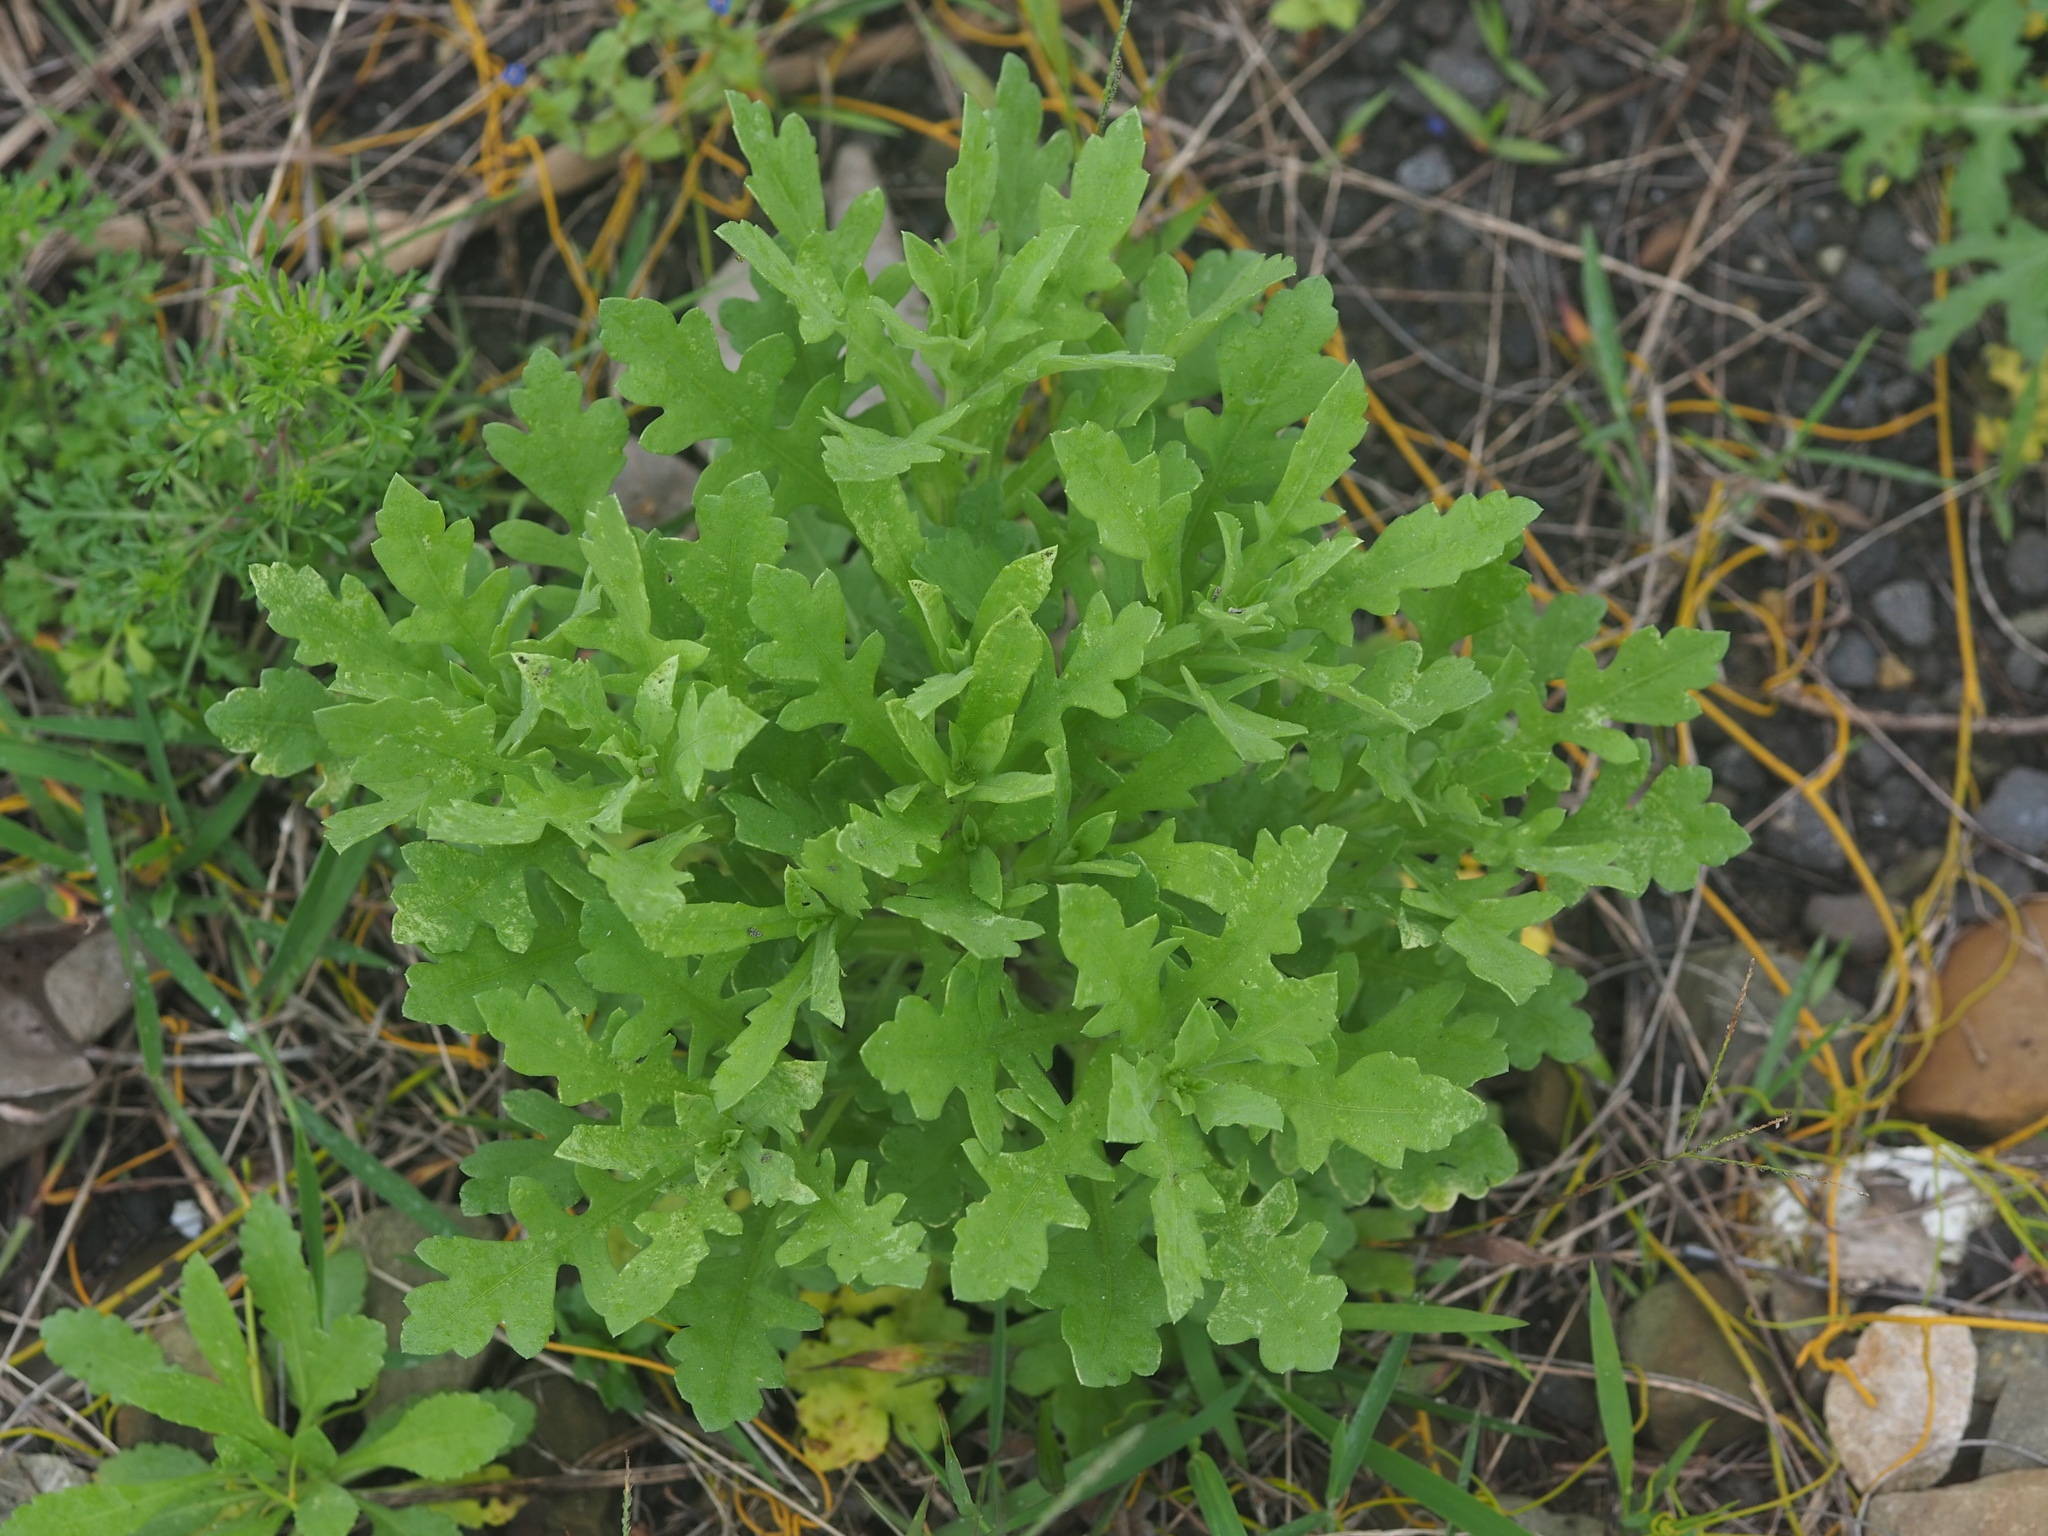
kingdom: Plantae
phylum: Tracheophyta
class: Magnoliopsida
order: Asterales
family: Asteraceae
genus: Gaillardia
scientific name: Gaillardia pulchella
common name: Firewheel
